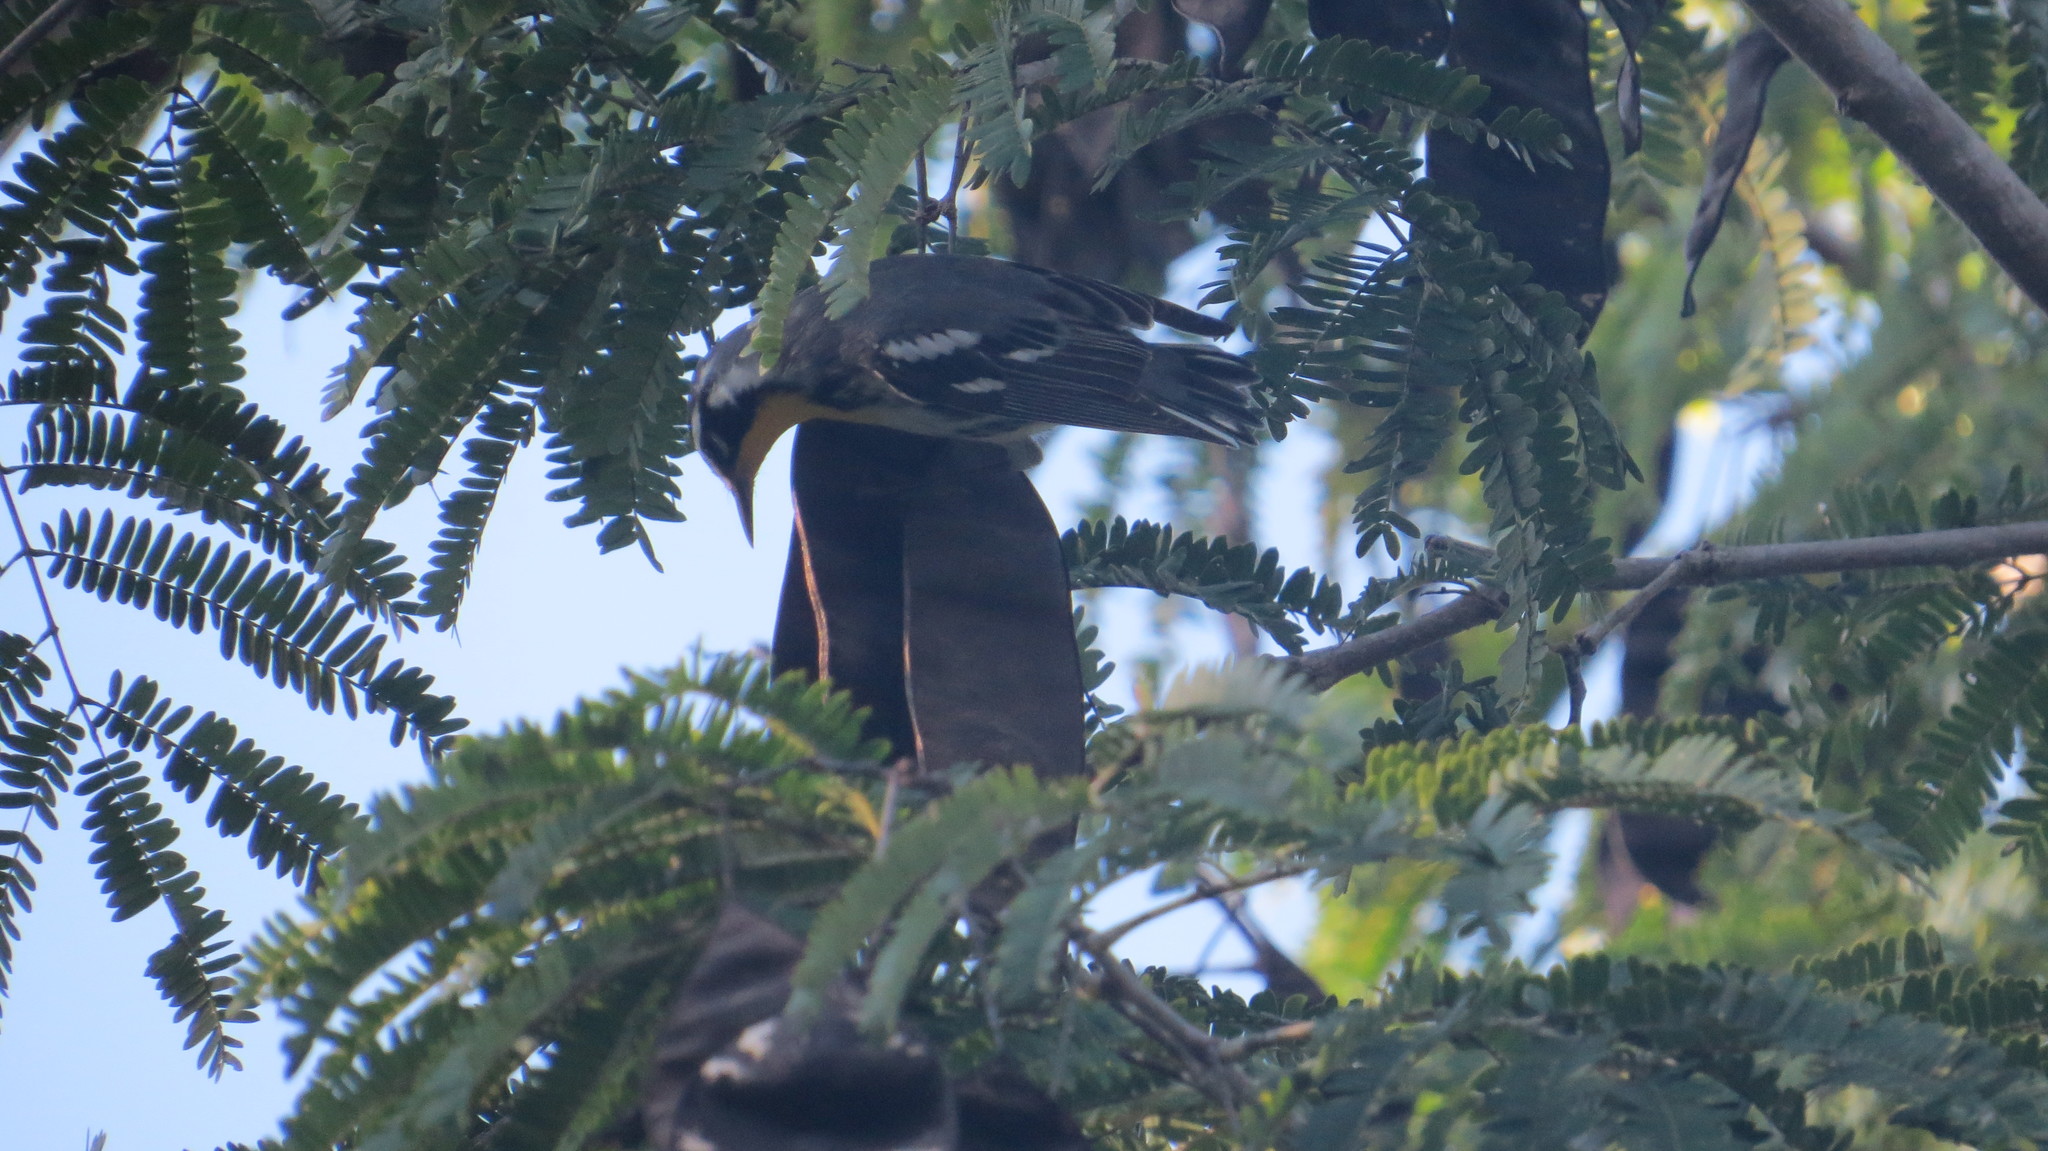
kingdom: Animalia
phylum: Chordata
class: Aves
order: Passeriformes
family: Parulidae
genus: Setophaga
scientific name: Setophaga dominica
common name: Yellow-throated warbler
